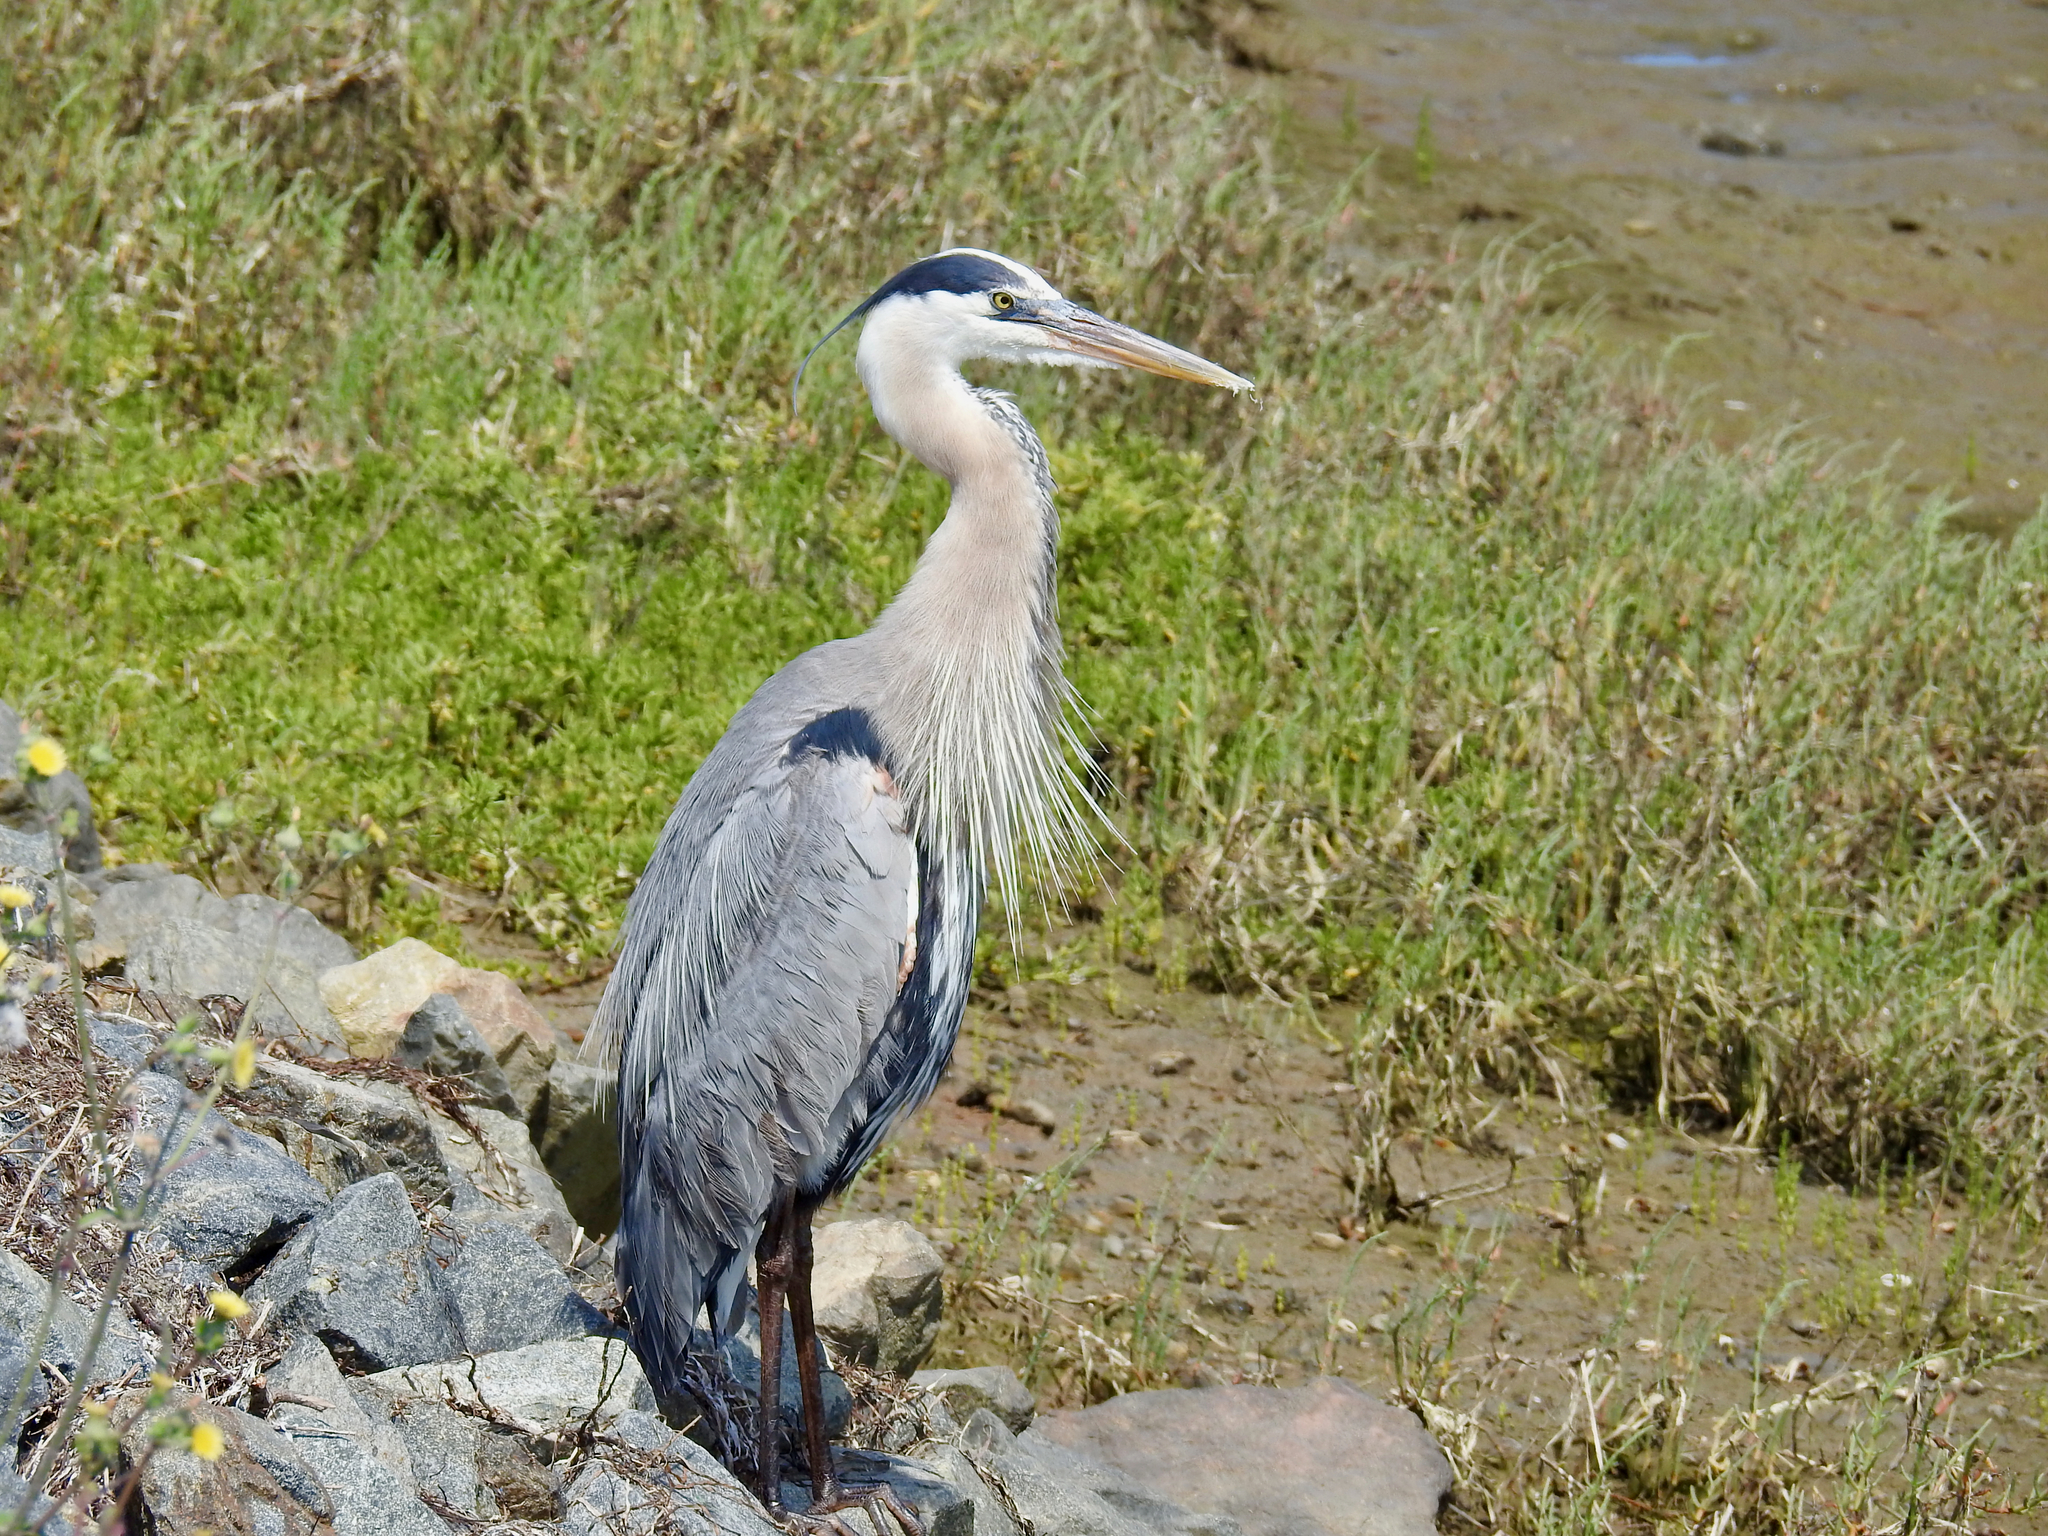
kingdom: Animalia
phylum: Chordata
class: Aves
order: Pelecaniformes
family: Ardeidae
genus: Ardea
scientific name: Ardea herodias
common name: Great blue heron
